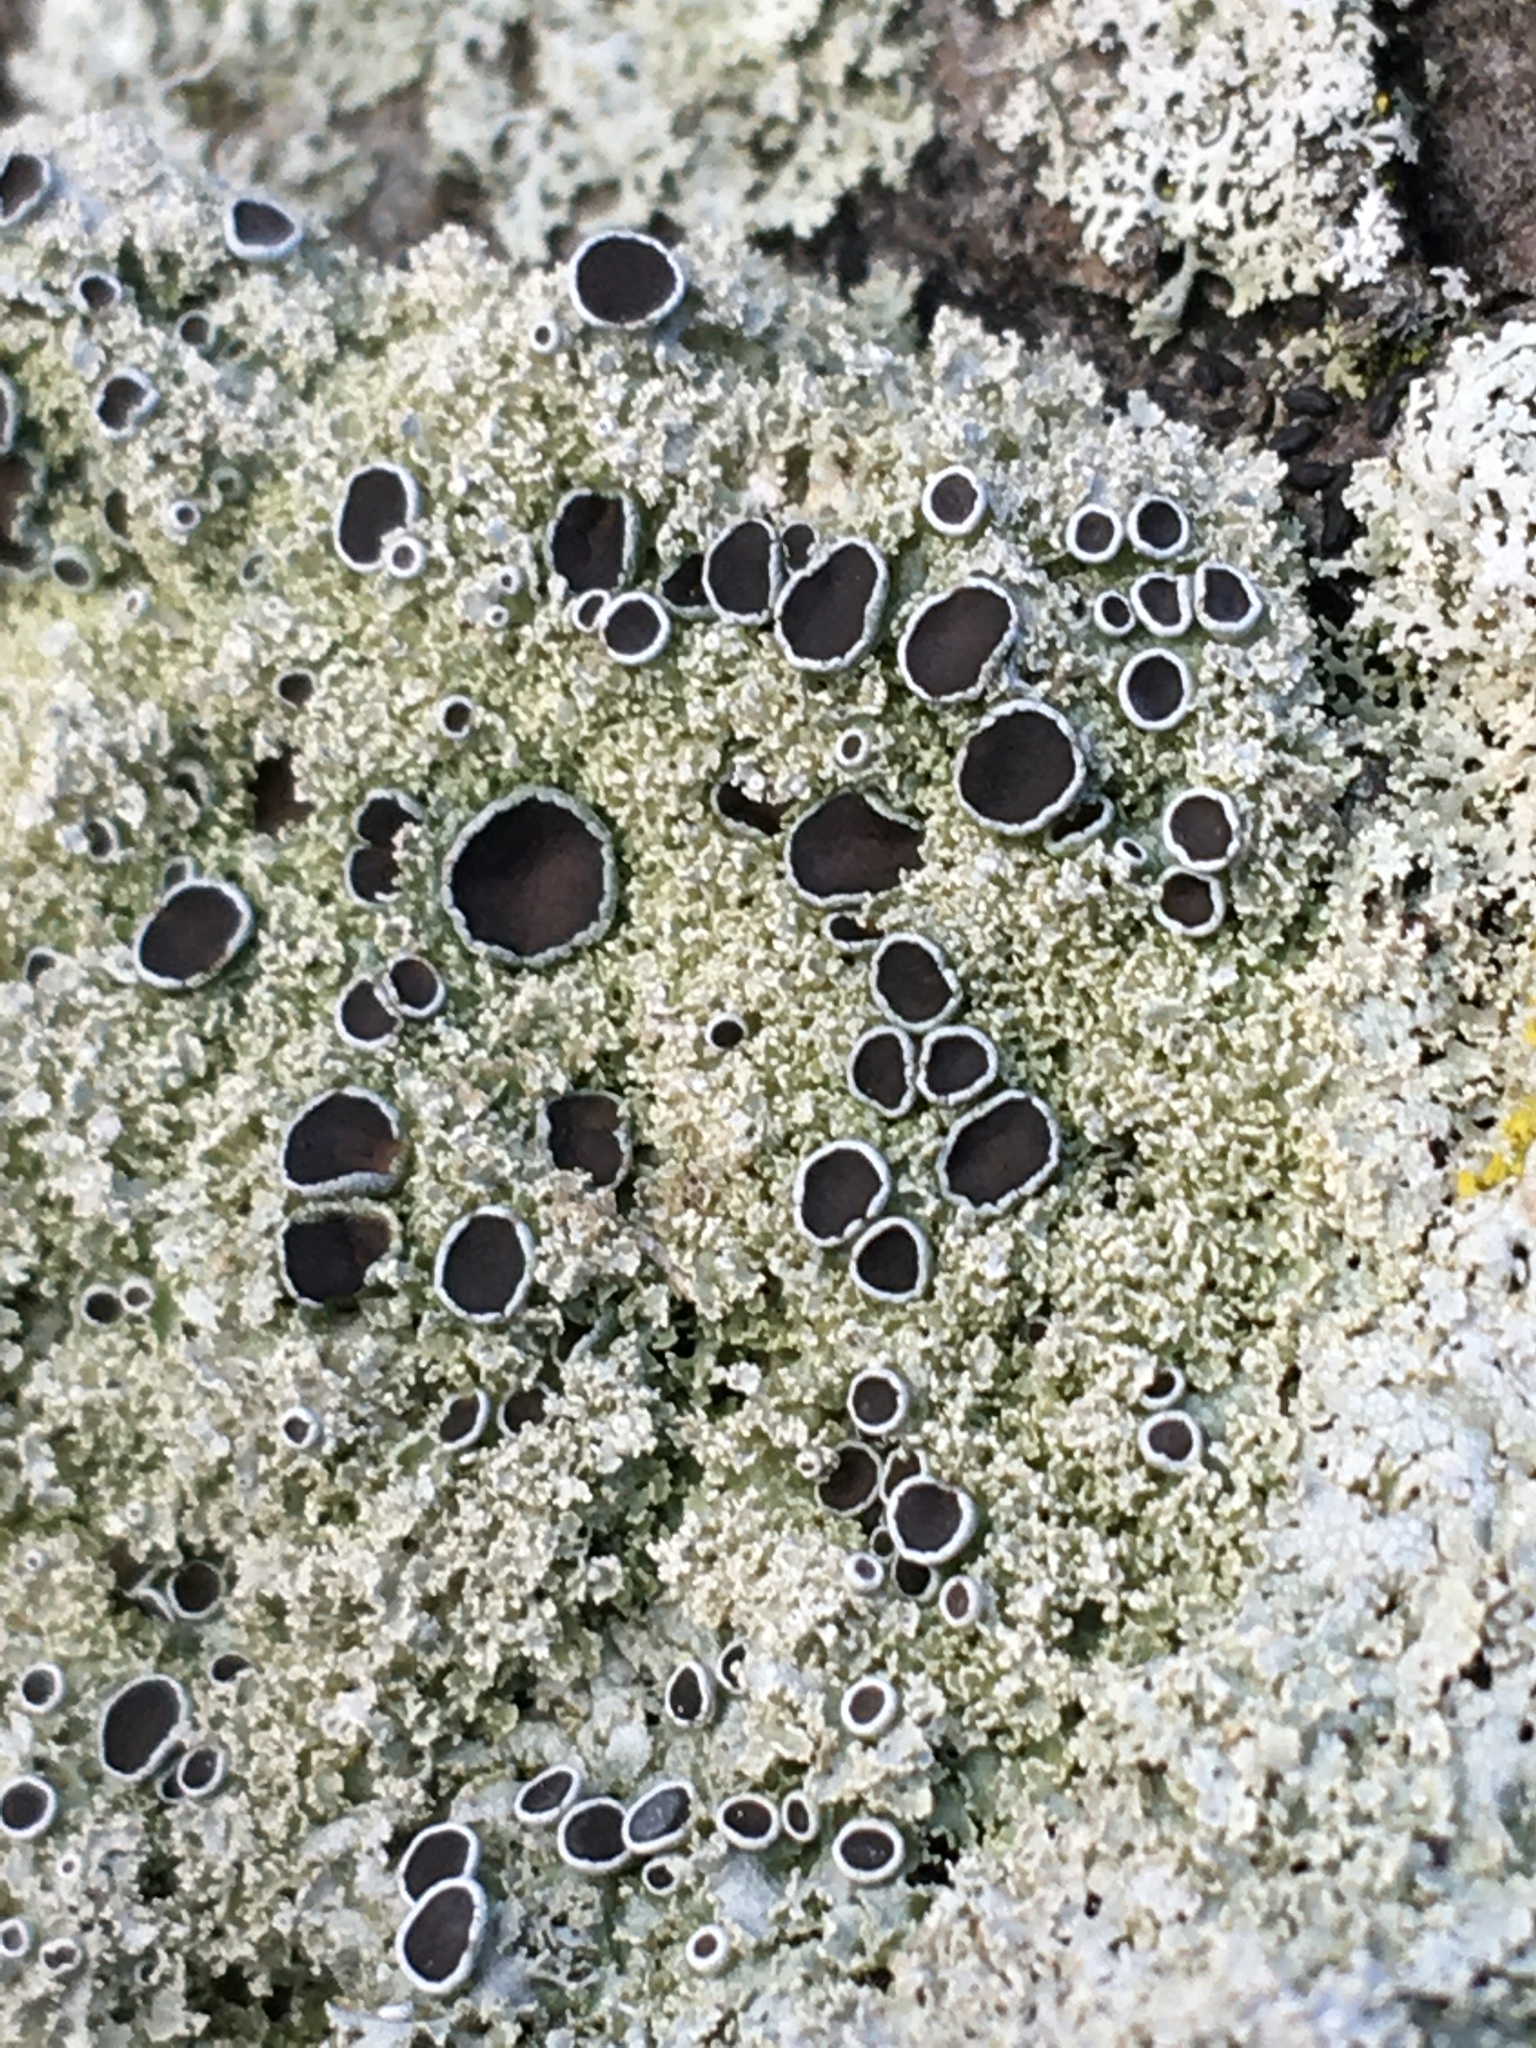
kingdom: Fungi
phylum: Ascomycota
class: Lecanoromycetes
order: Caliciales
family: Physciaceae
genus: Physcia
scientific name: Physcia millegrana
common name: Rosette lichen
